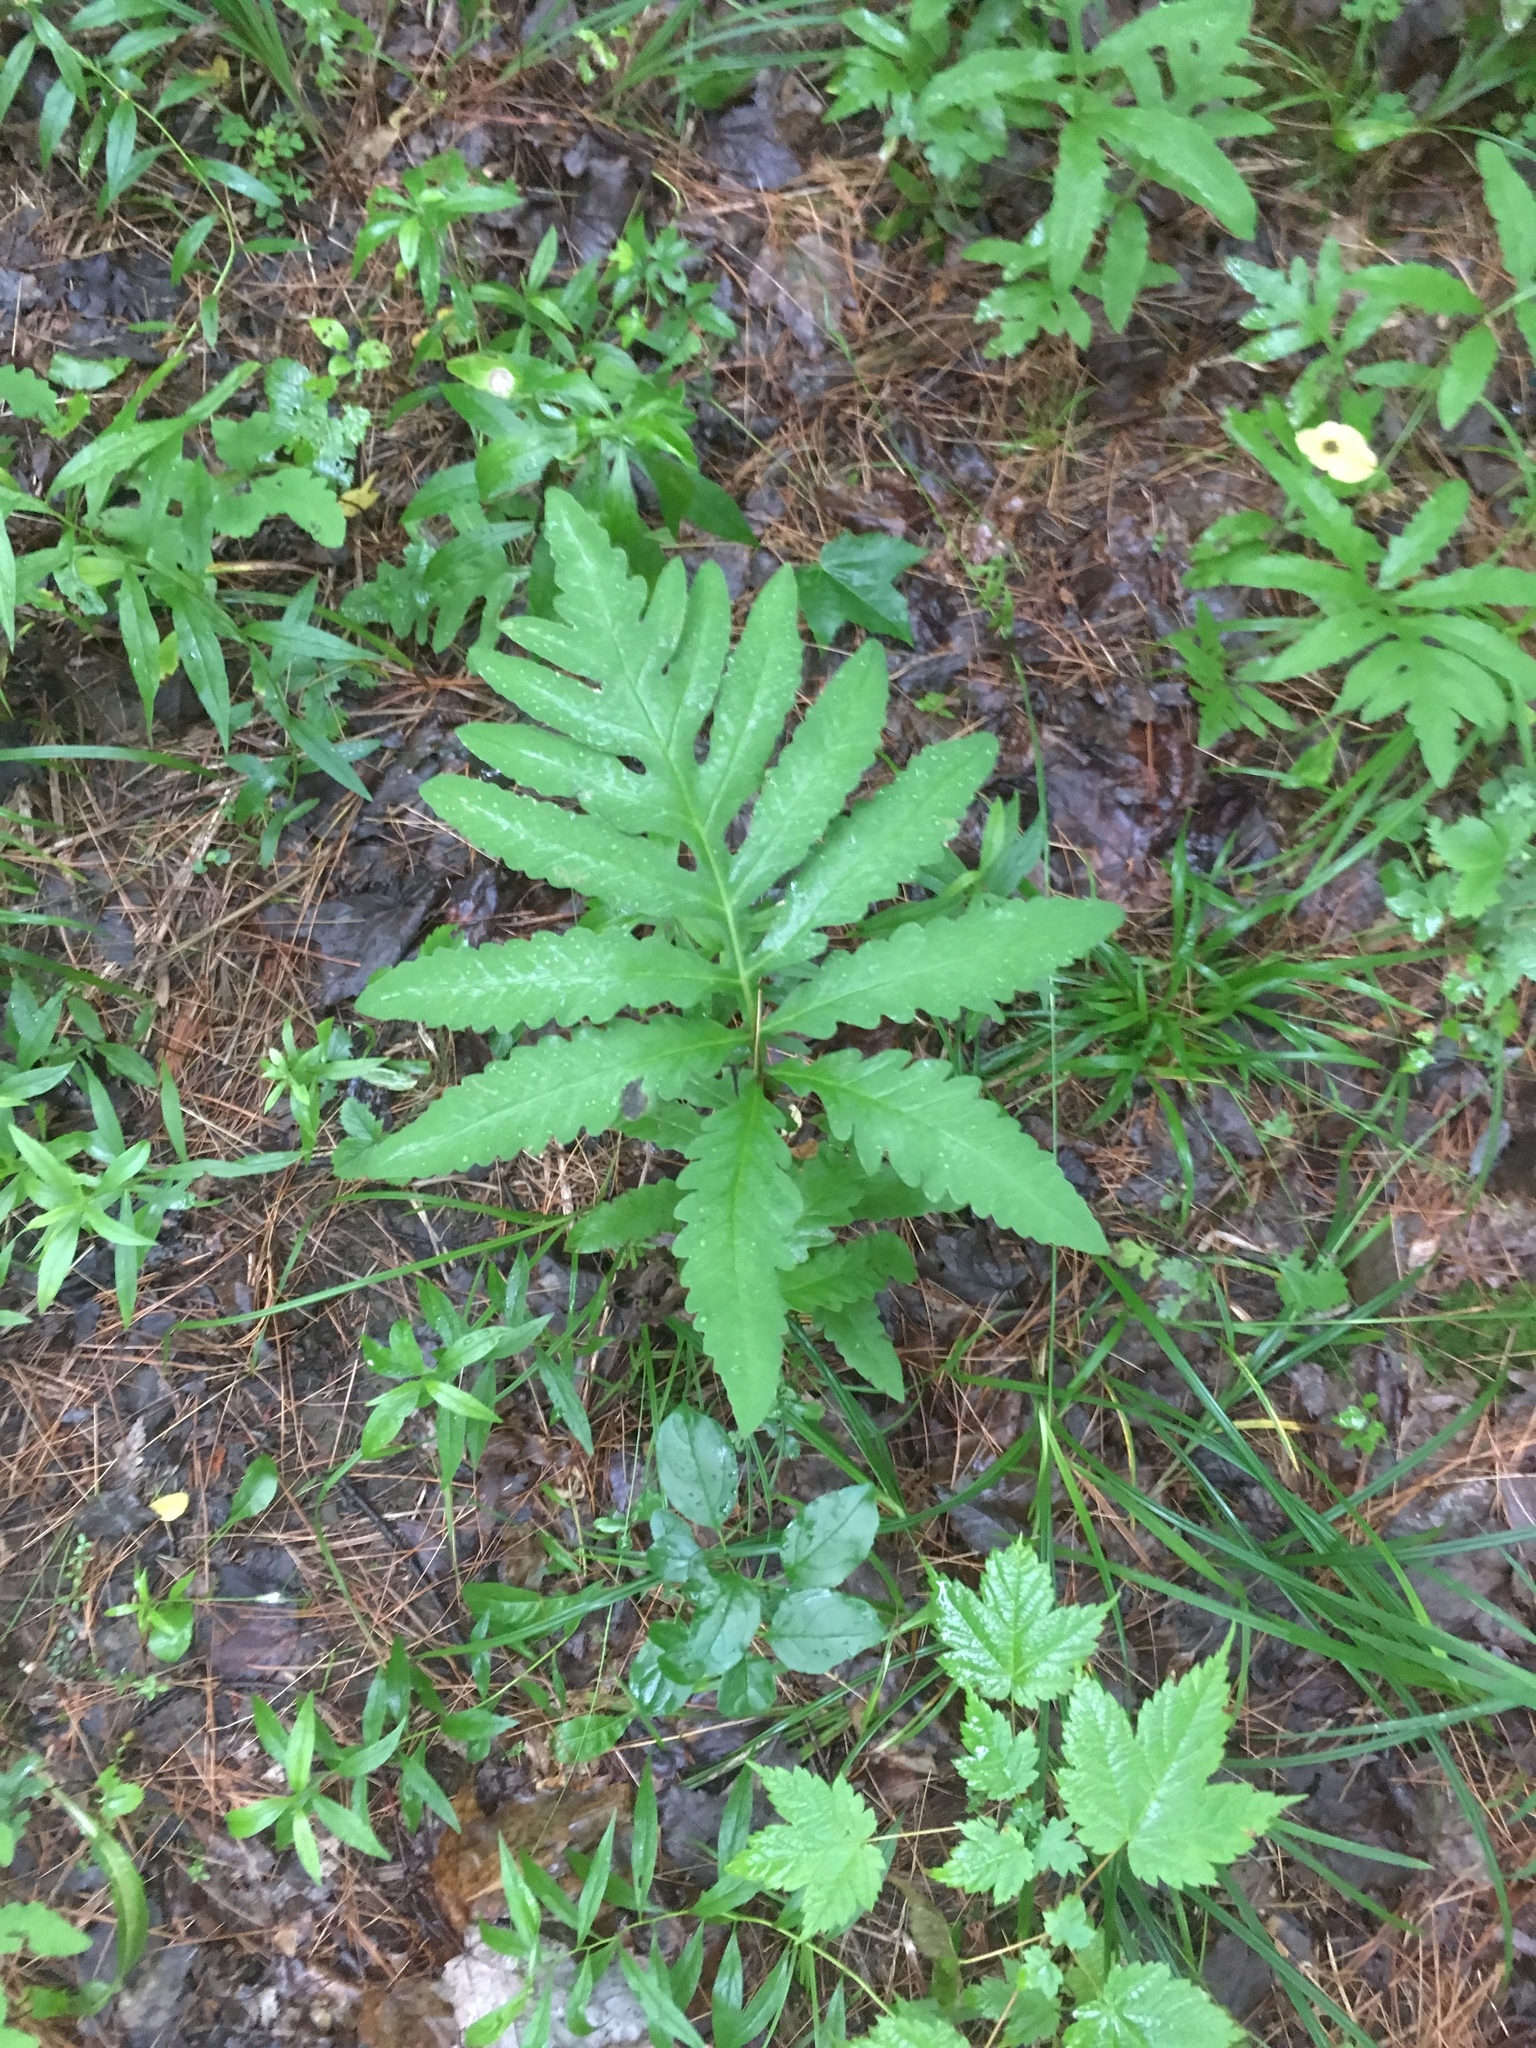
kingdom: Plantae
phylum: Tracheophyta
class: Polypodiopsida
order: Polypodiales
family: Onocleaceae
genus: Onoclea
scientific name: Onoclea sensibilis
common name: Sensitive fern
